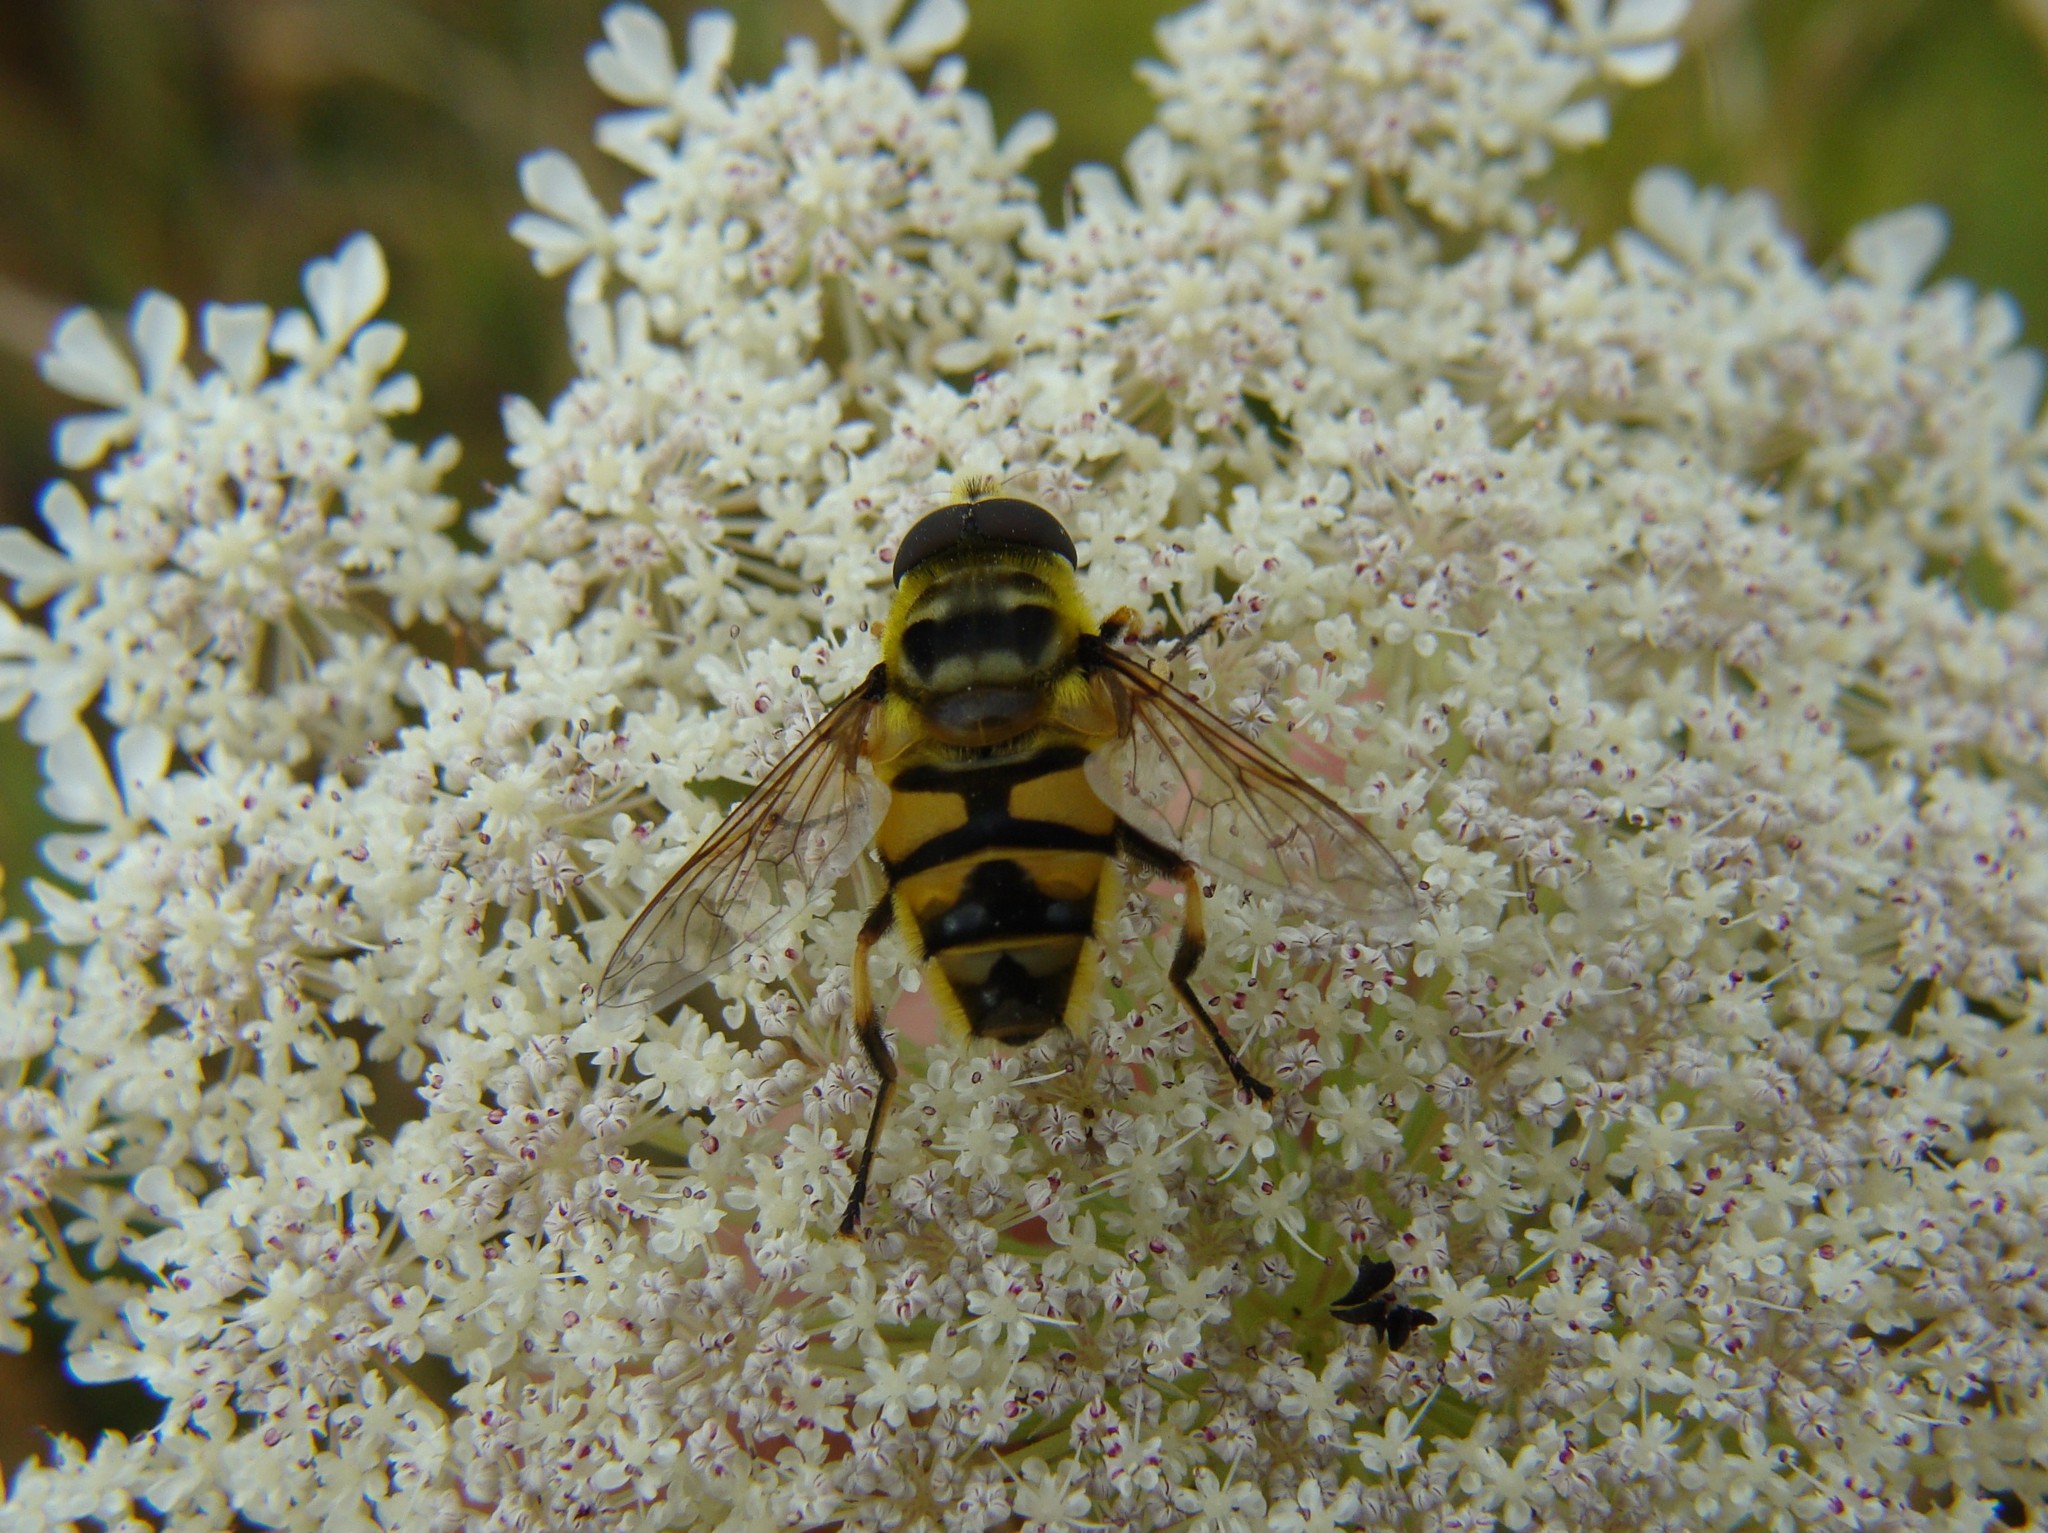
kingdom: Animalia
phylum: Arthropoda
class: Insecta
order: Diptera
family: Syrphidae
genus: Myathropa
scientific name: Myathropa florea
